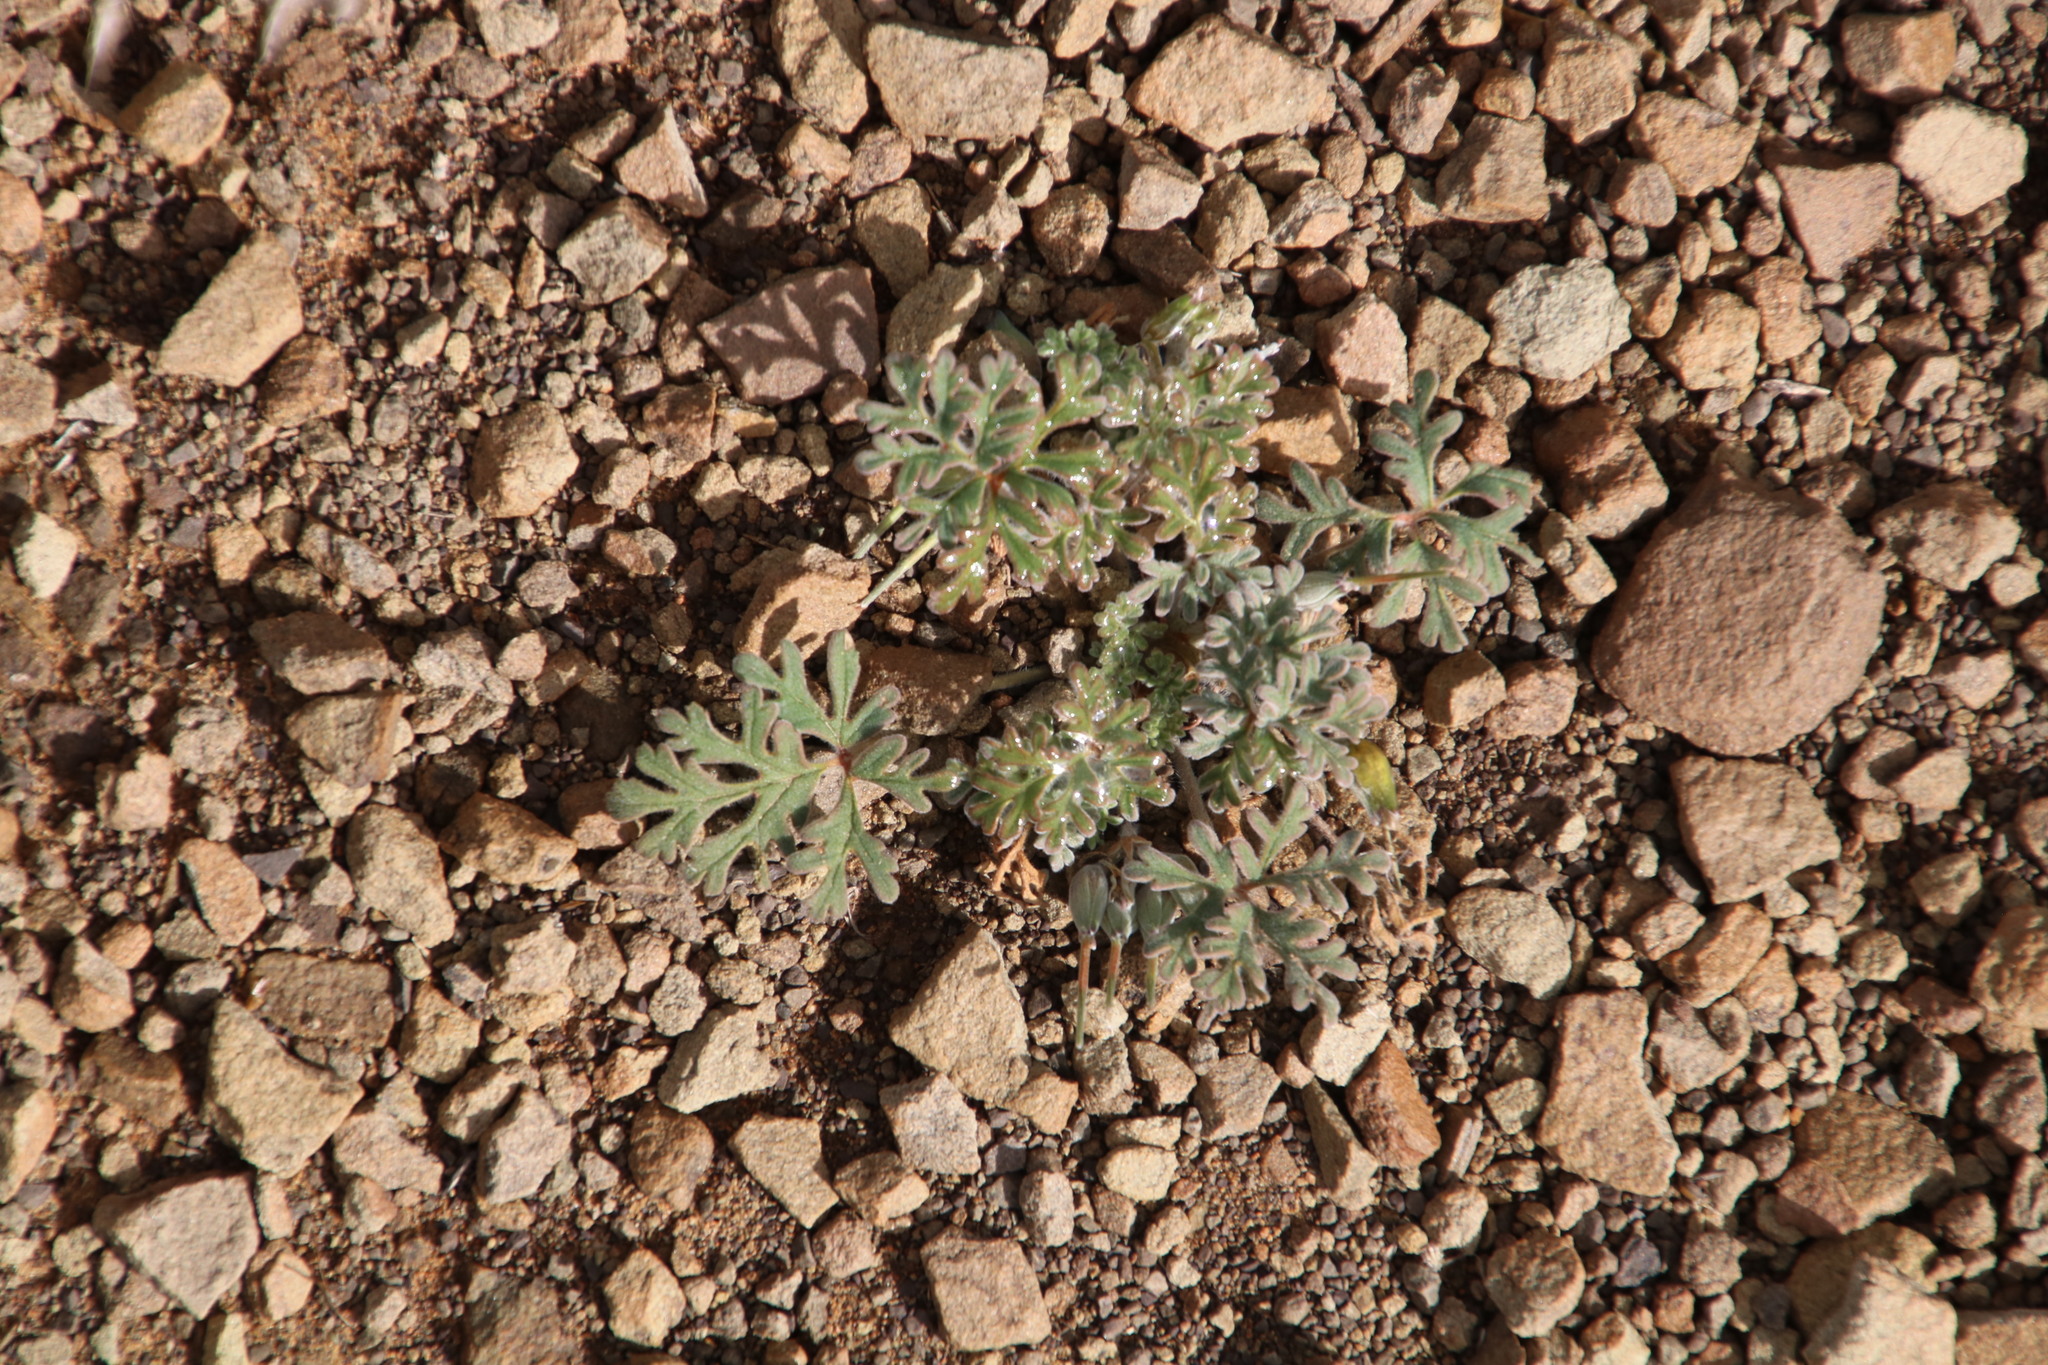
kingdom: Plantae
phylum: Tracheophyta
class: Magnoliopsida
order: Geraniales
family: Geraniaceae
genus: Pelargonium
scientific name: Pelargonium minimum
